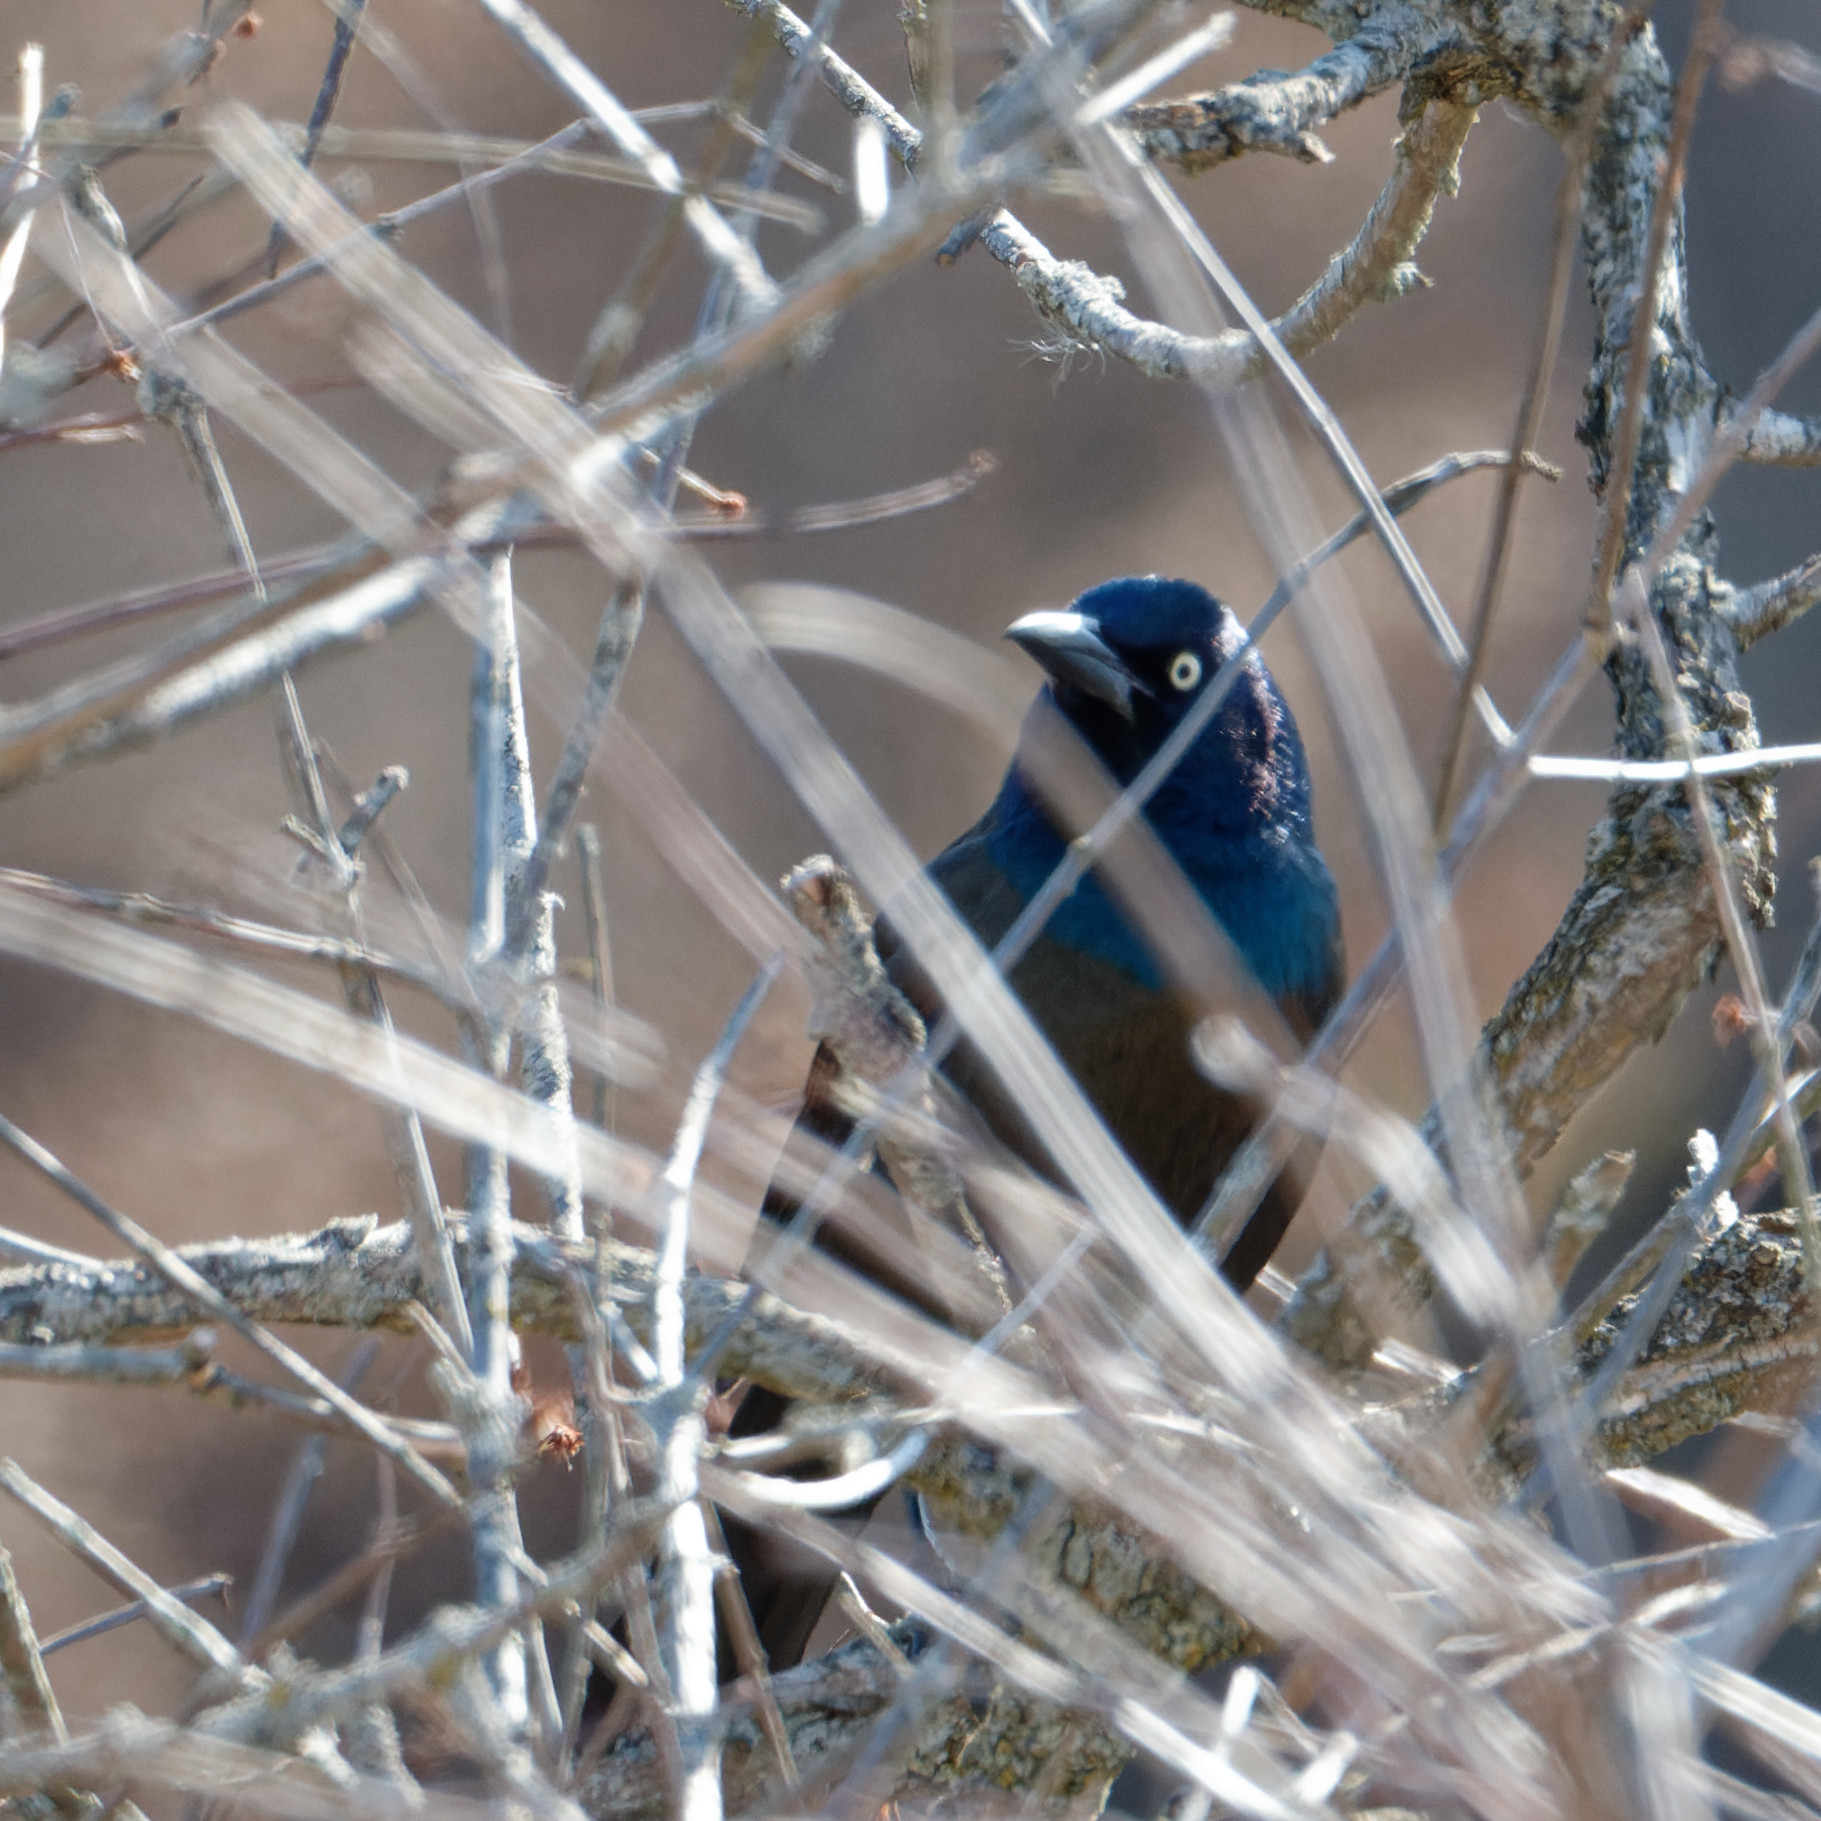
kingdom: Animalia
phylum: Chordata
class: Aves
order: Passeriformes
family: Icteridae
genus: Quiscalus
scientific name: Quiscalus quiscula
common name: Common grackle
